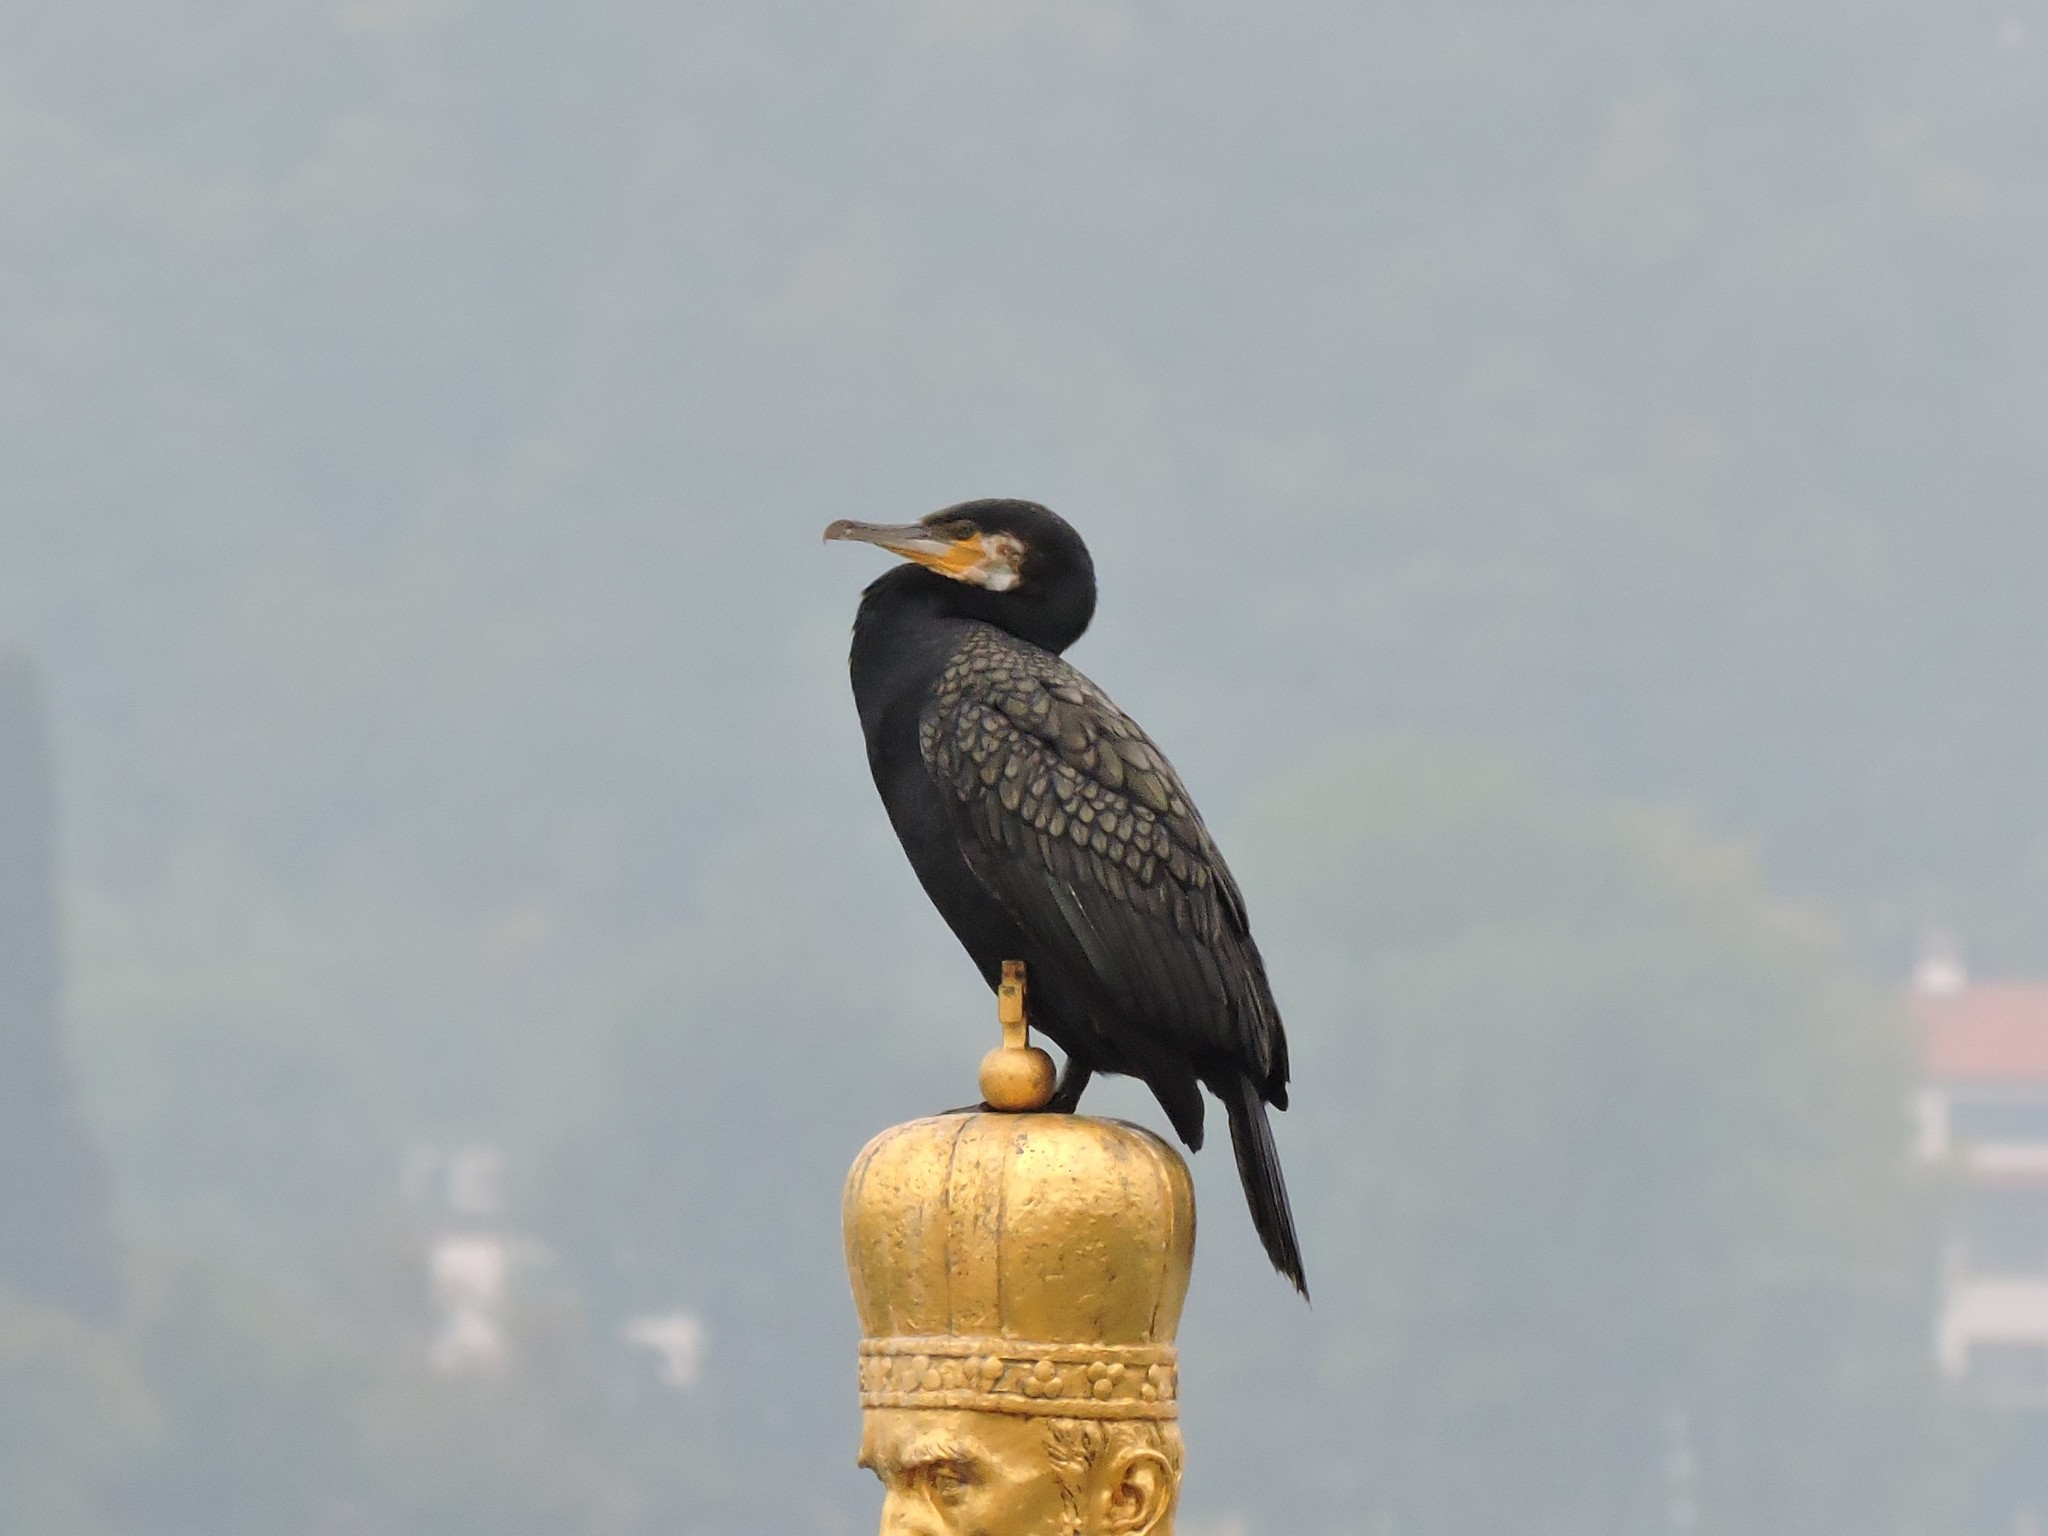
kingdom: Animalia
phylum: Chordata
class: Aves
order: Suliformes
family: Phalacrocoracidae
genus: Phalacrocorax
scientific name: Phalacrocorax carbo
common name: Great cormorant
